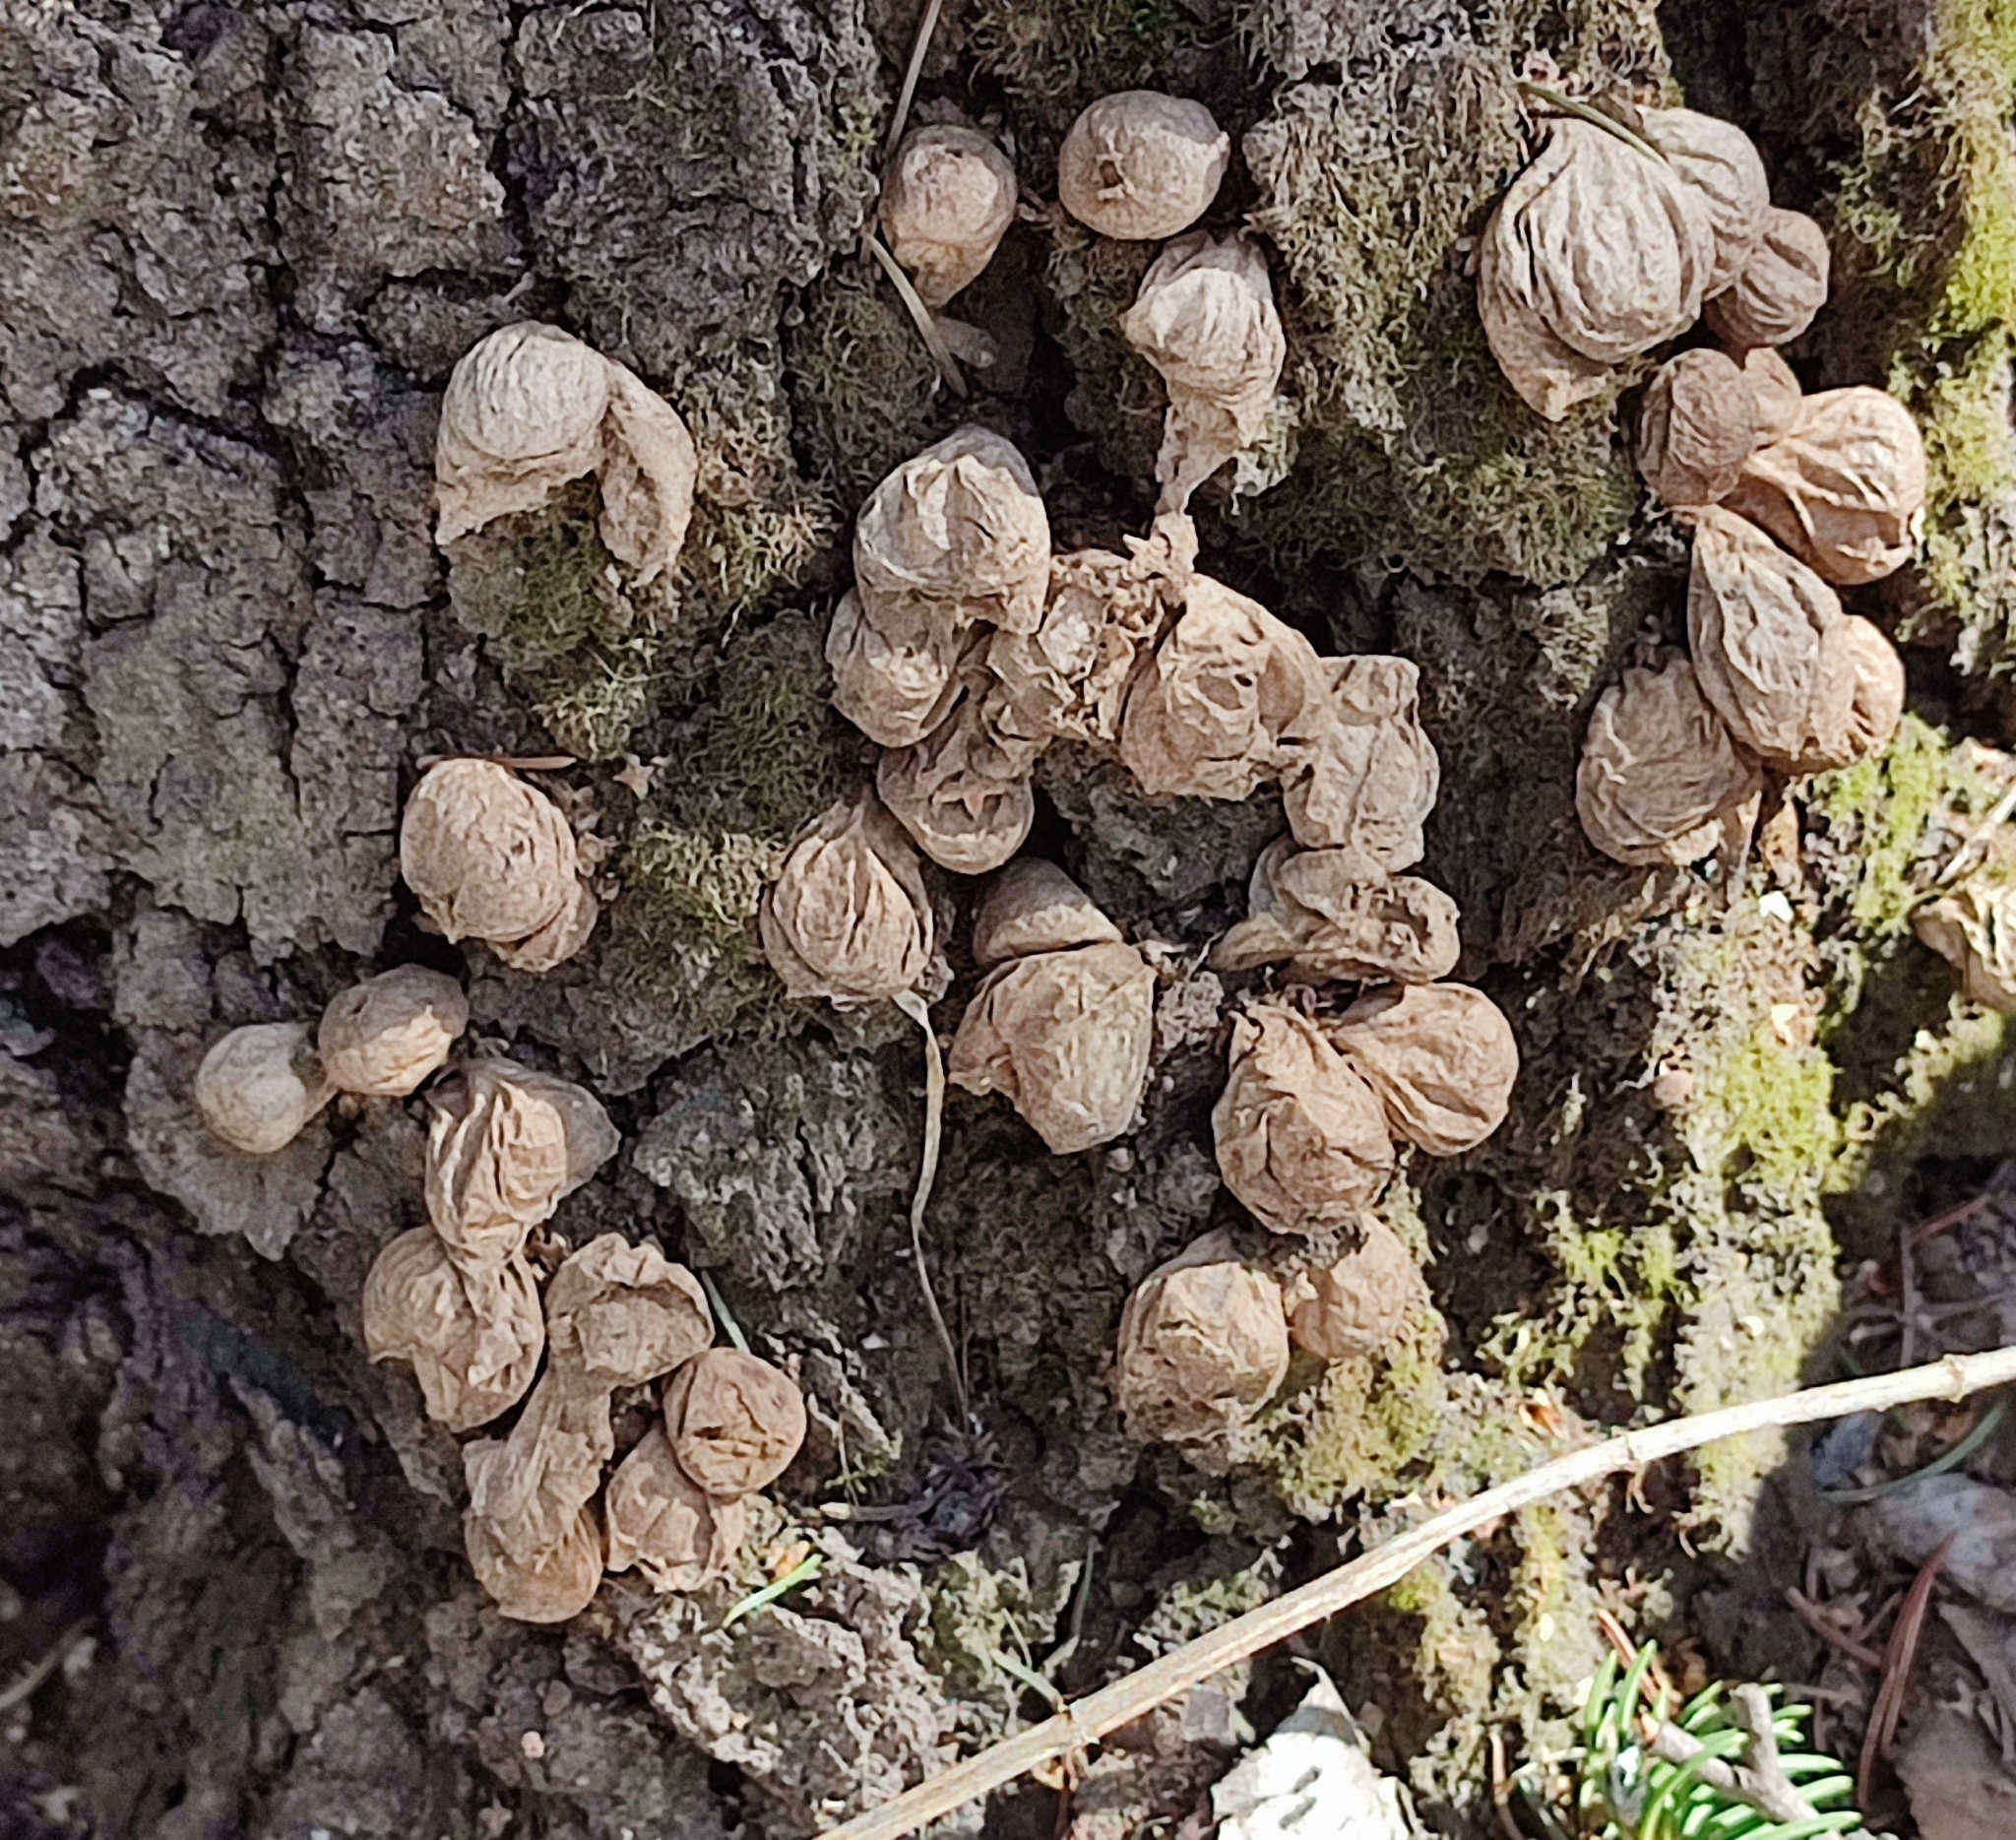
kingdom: Fungi
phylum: Basidiomycota
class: Agaricomycetes
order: Agaricales
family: Lycoperdaceae
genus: Apioperdon
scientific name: Apioperdon pyriforme
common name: Pear-shaped puffball
